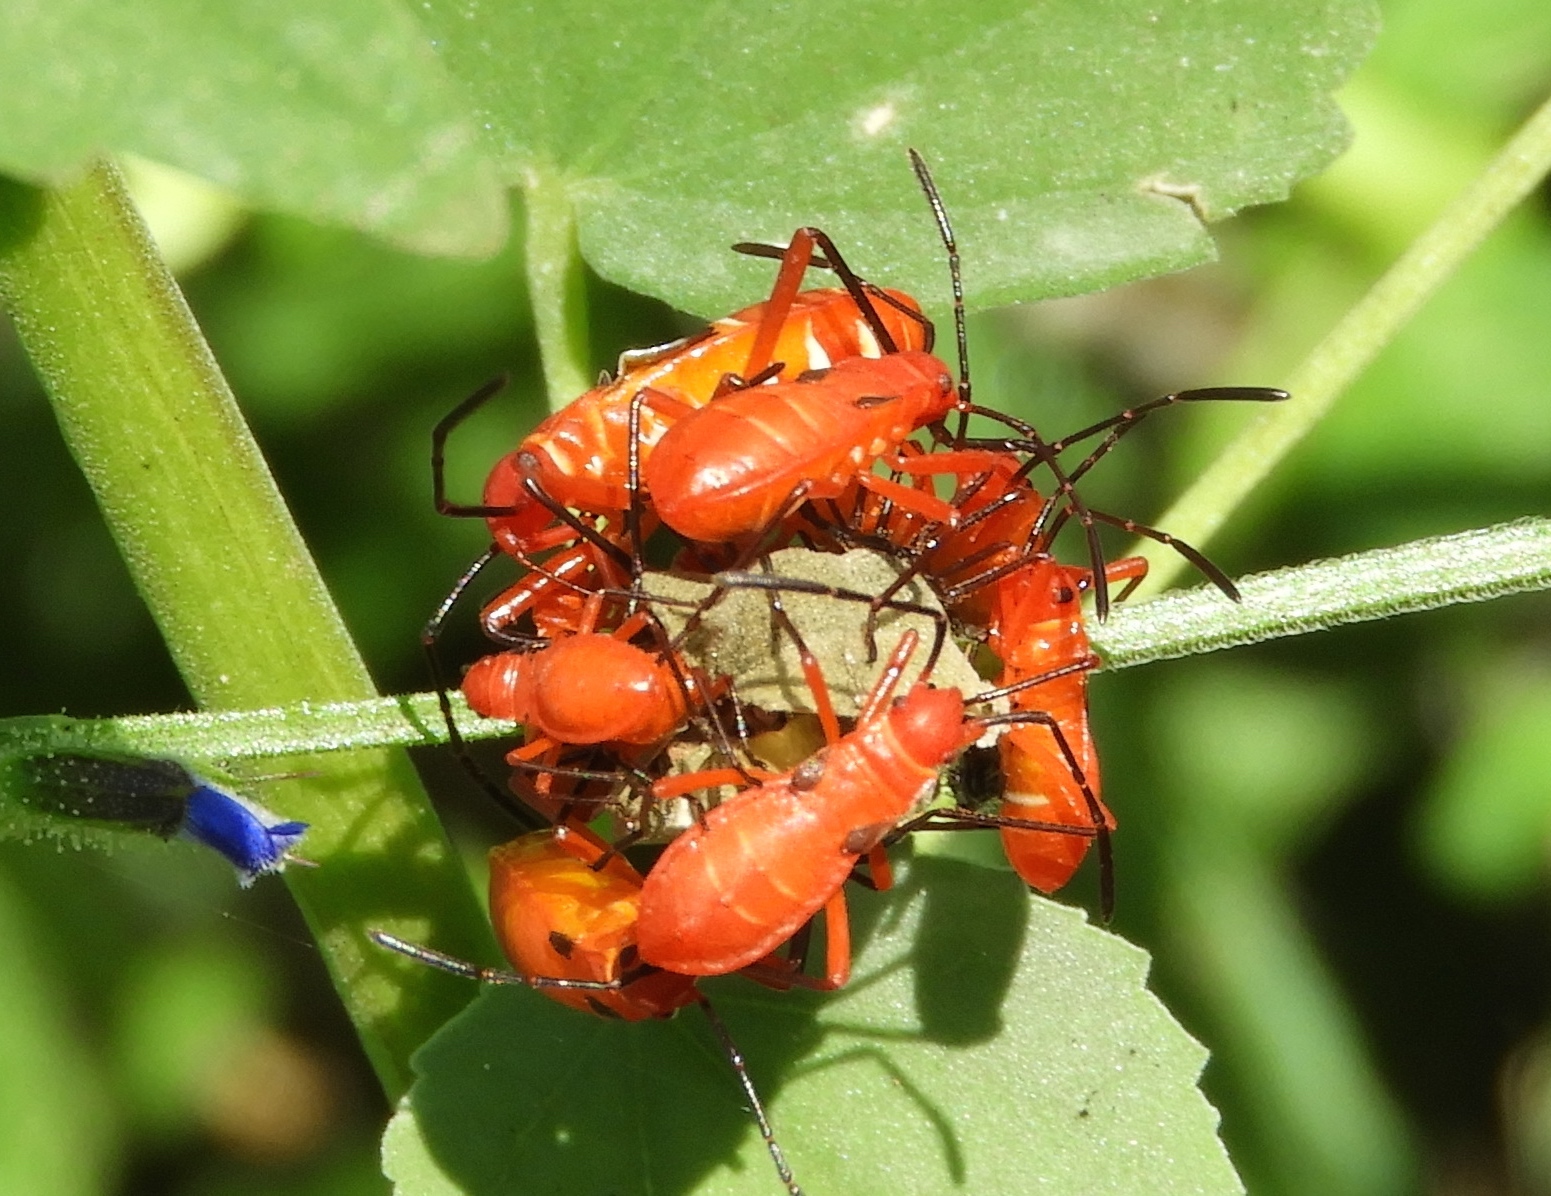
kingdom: Animalia
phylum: Arthropoda
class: Insecta
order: Hemiptera
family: Pyrrhocoridae
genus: Dysdercus
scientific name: Dysdercus
